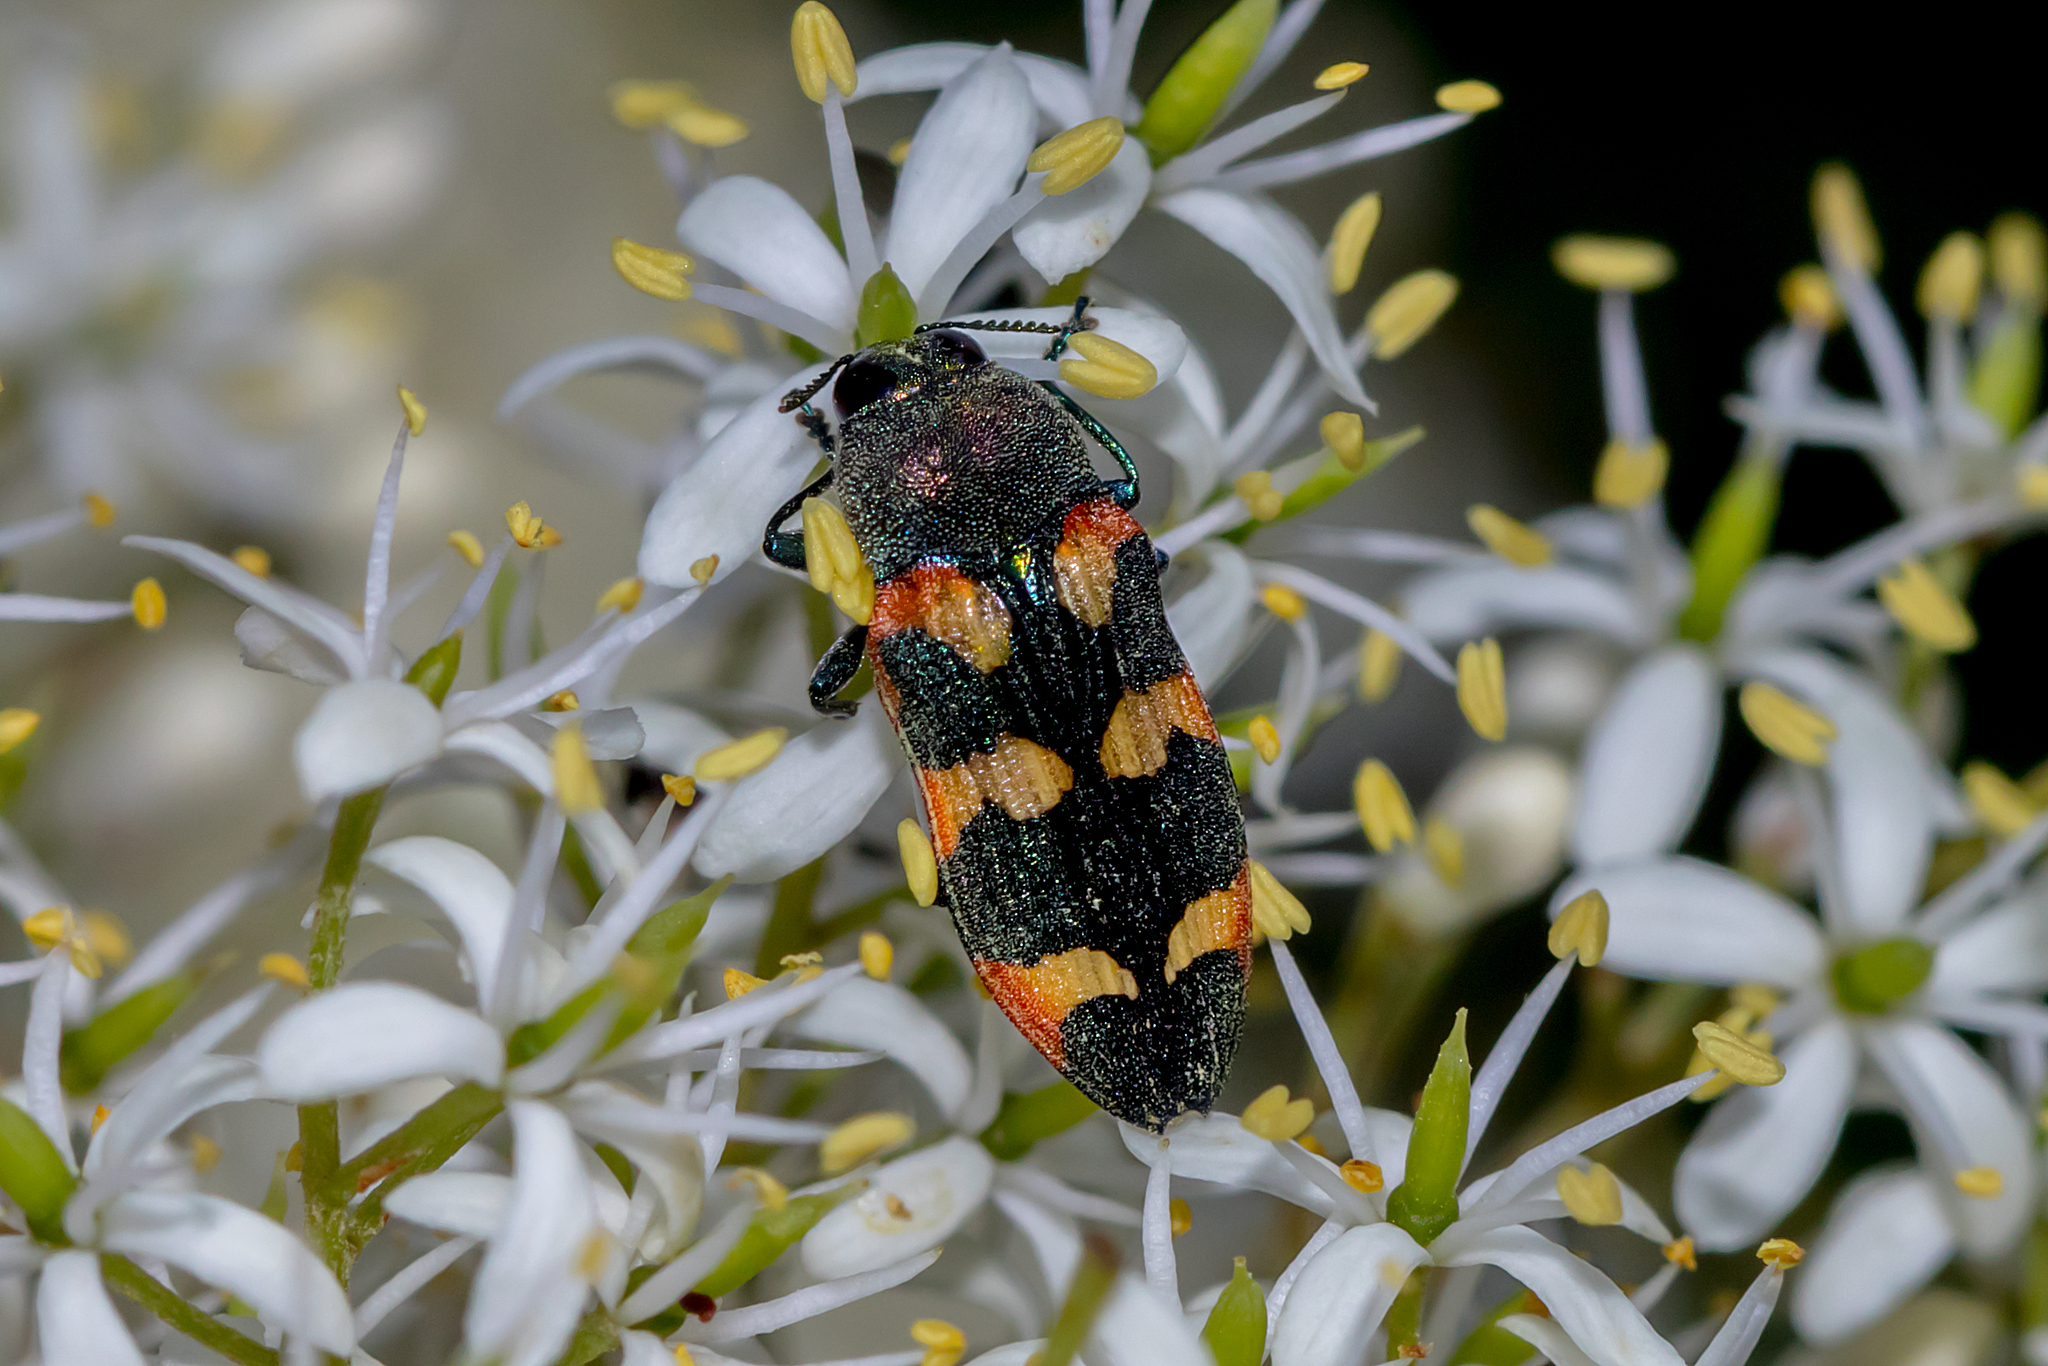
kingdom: Animalia
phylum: Arthropoda
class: Insecta
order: Coleoptera
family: Buprestidae
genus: Castiarina
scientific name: Castiarina sexplagiata
